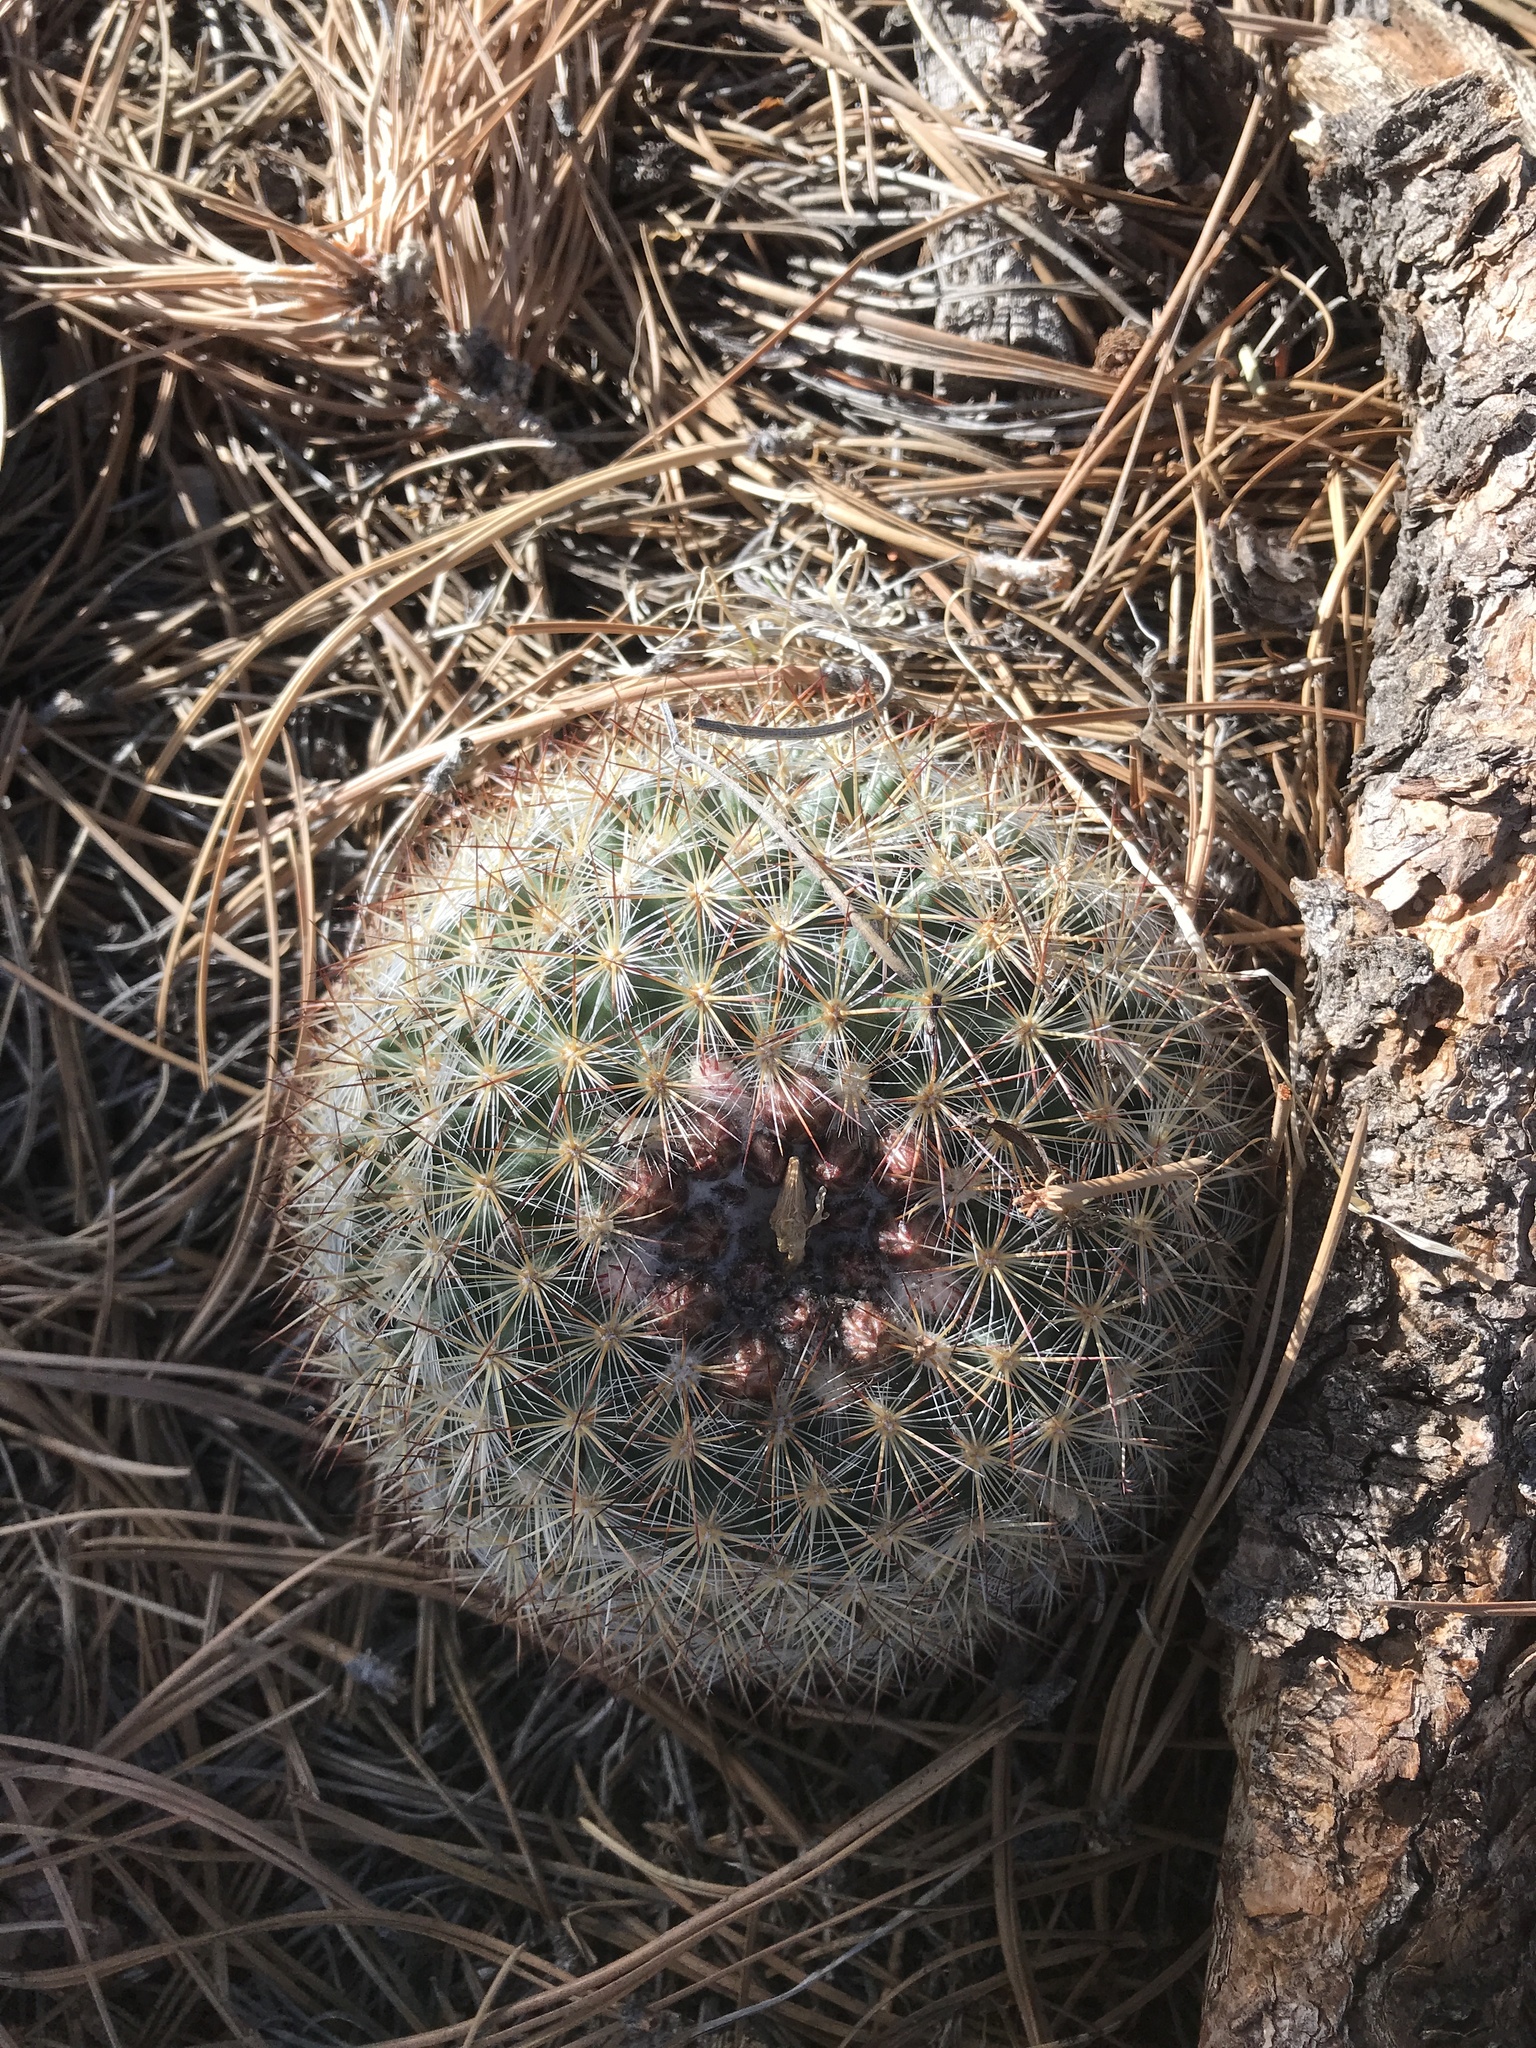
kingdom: Plantae
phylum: Tracheophyta
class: Magnoliopsida
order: Caryophyllales
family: Cactaceae
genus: Pediocactus
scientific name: Pediocactus simpsonii
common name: Simpson's hedgehog cactus
